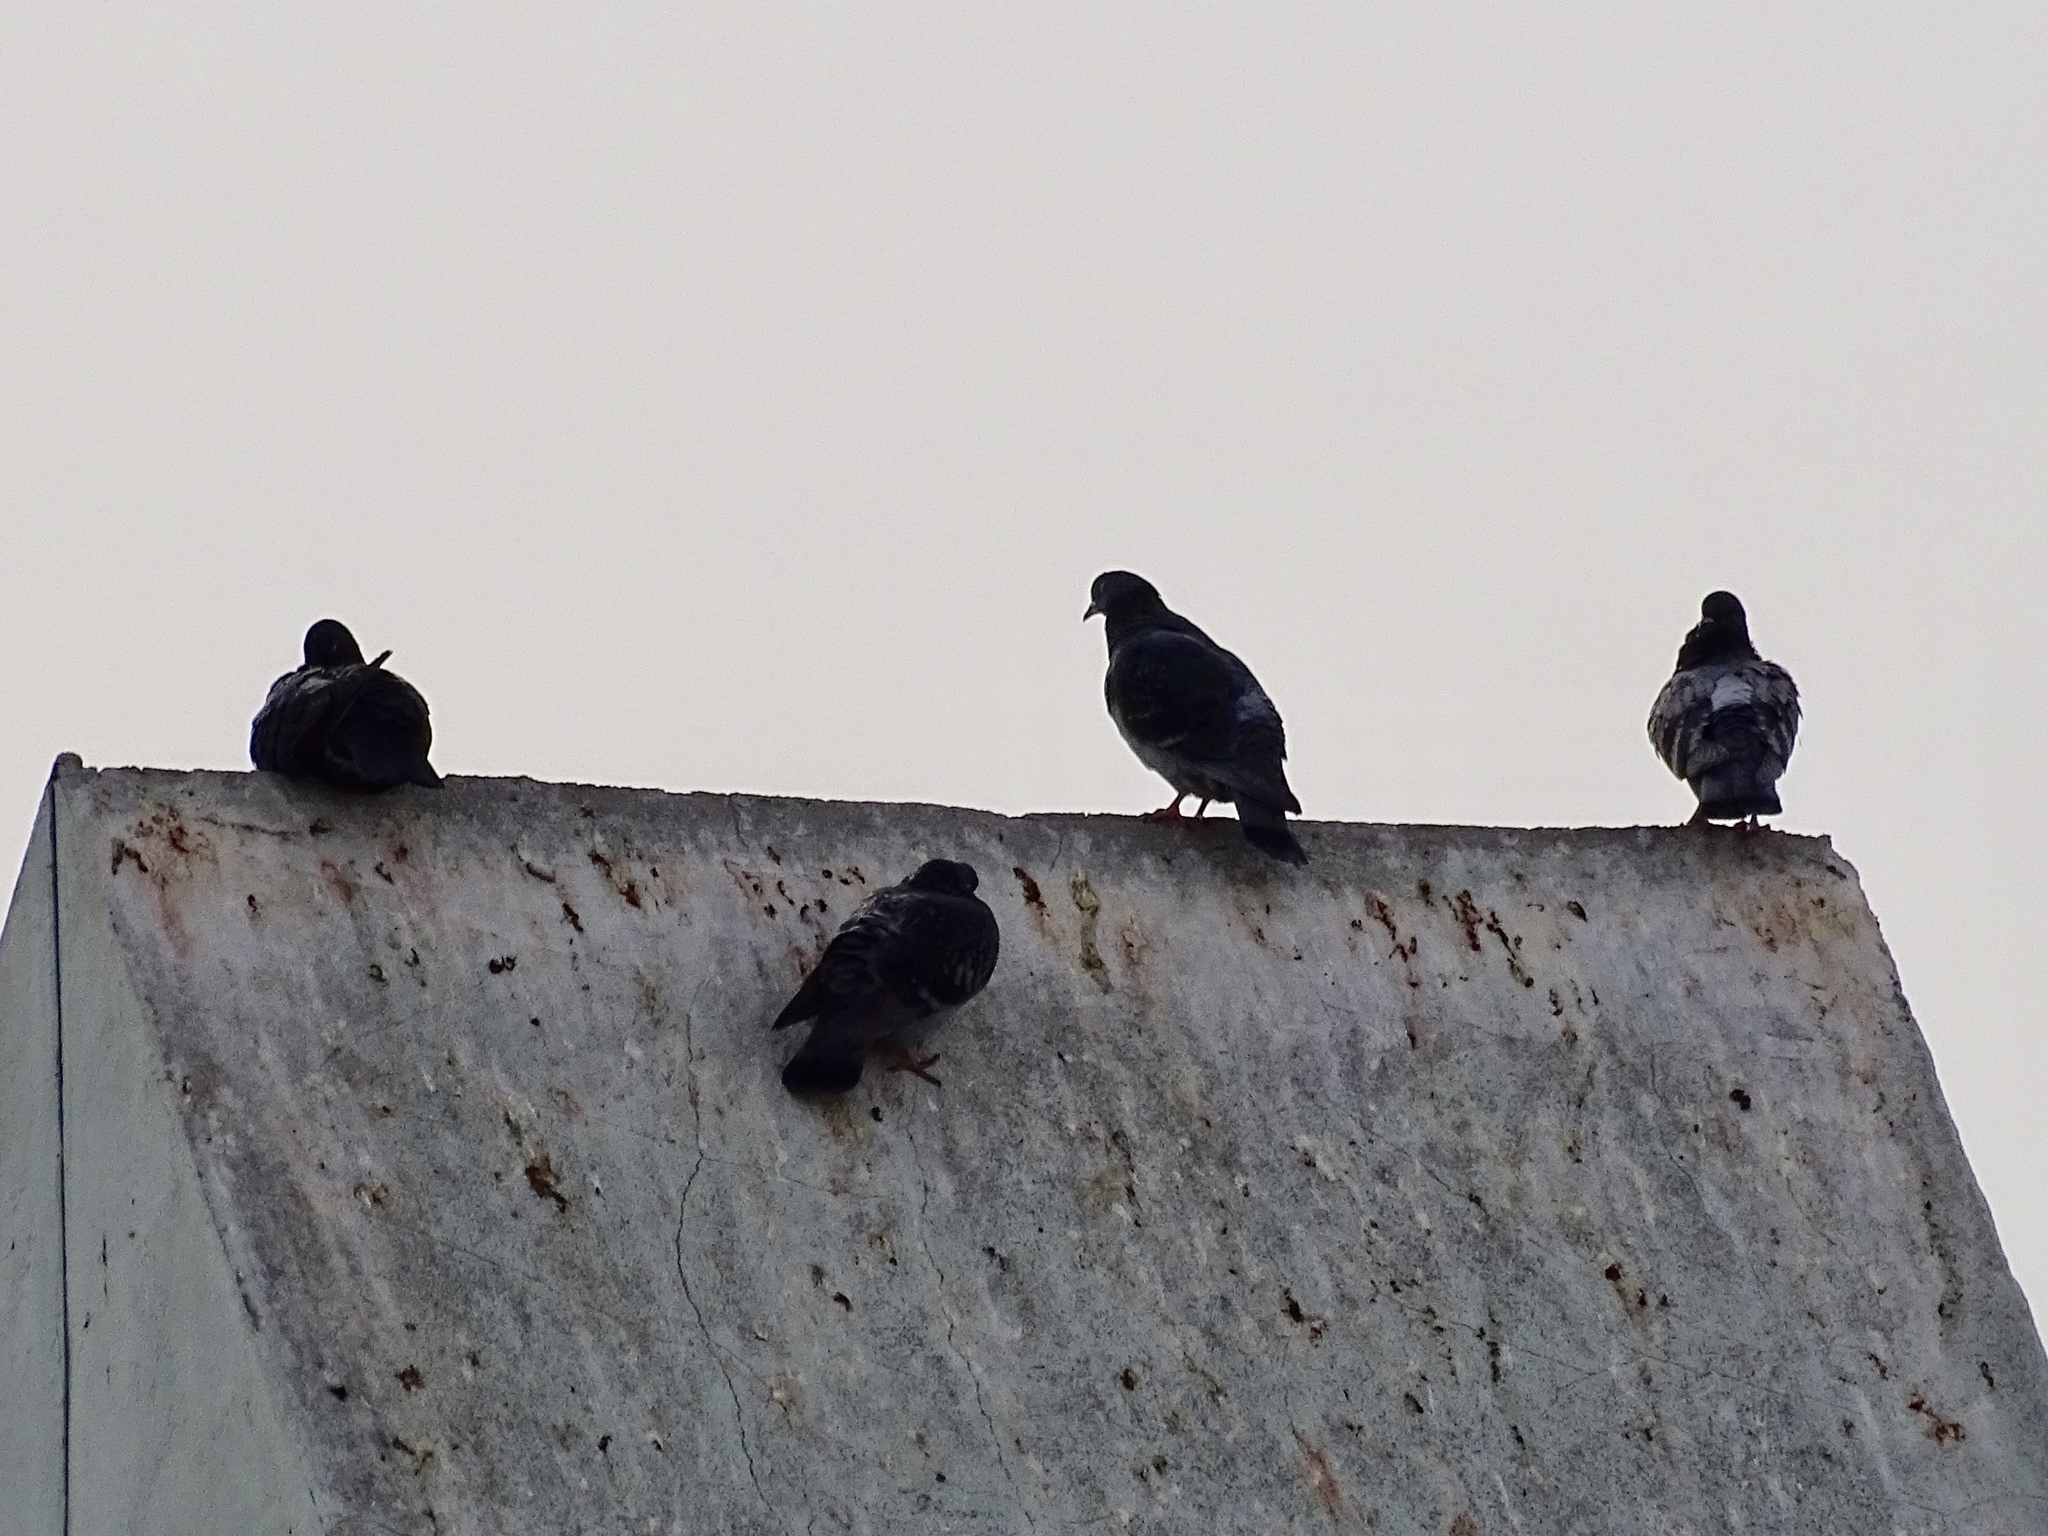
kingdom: Animalia
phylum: Chordata
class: Aves
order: Columbiformes
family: Columbidae
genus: Columba
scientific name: Columba livia
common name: Rock pigeon
